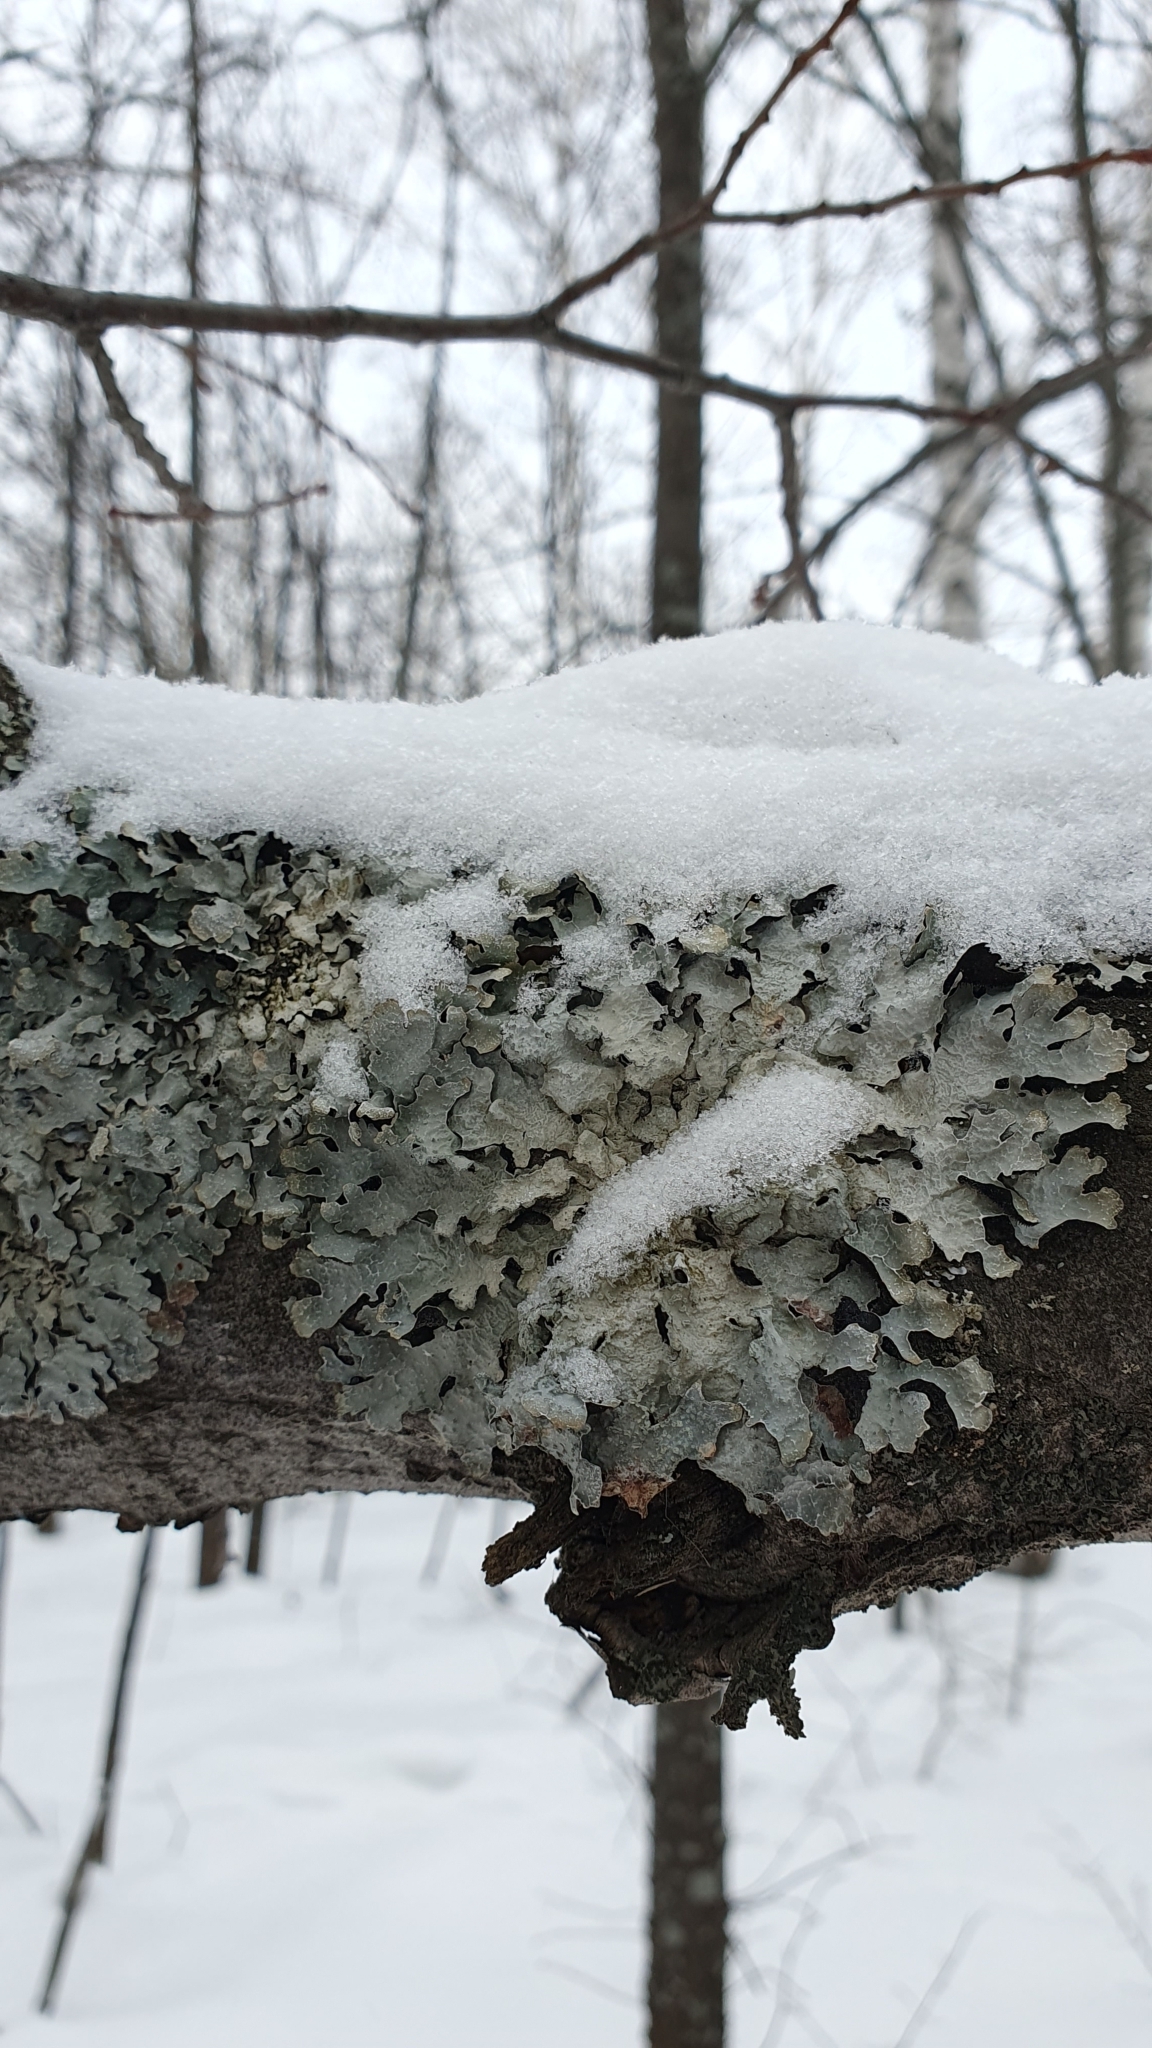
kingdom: Fungi
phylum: Ascomycota
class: Lecanoromycetes
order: Lecanorales
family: Parmeliaceae
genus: Parmelia
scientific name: Parmelia sulcata
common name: Netted shield lichen
